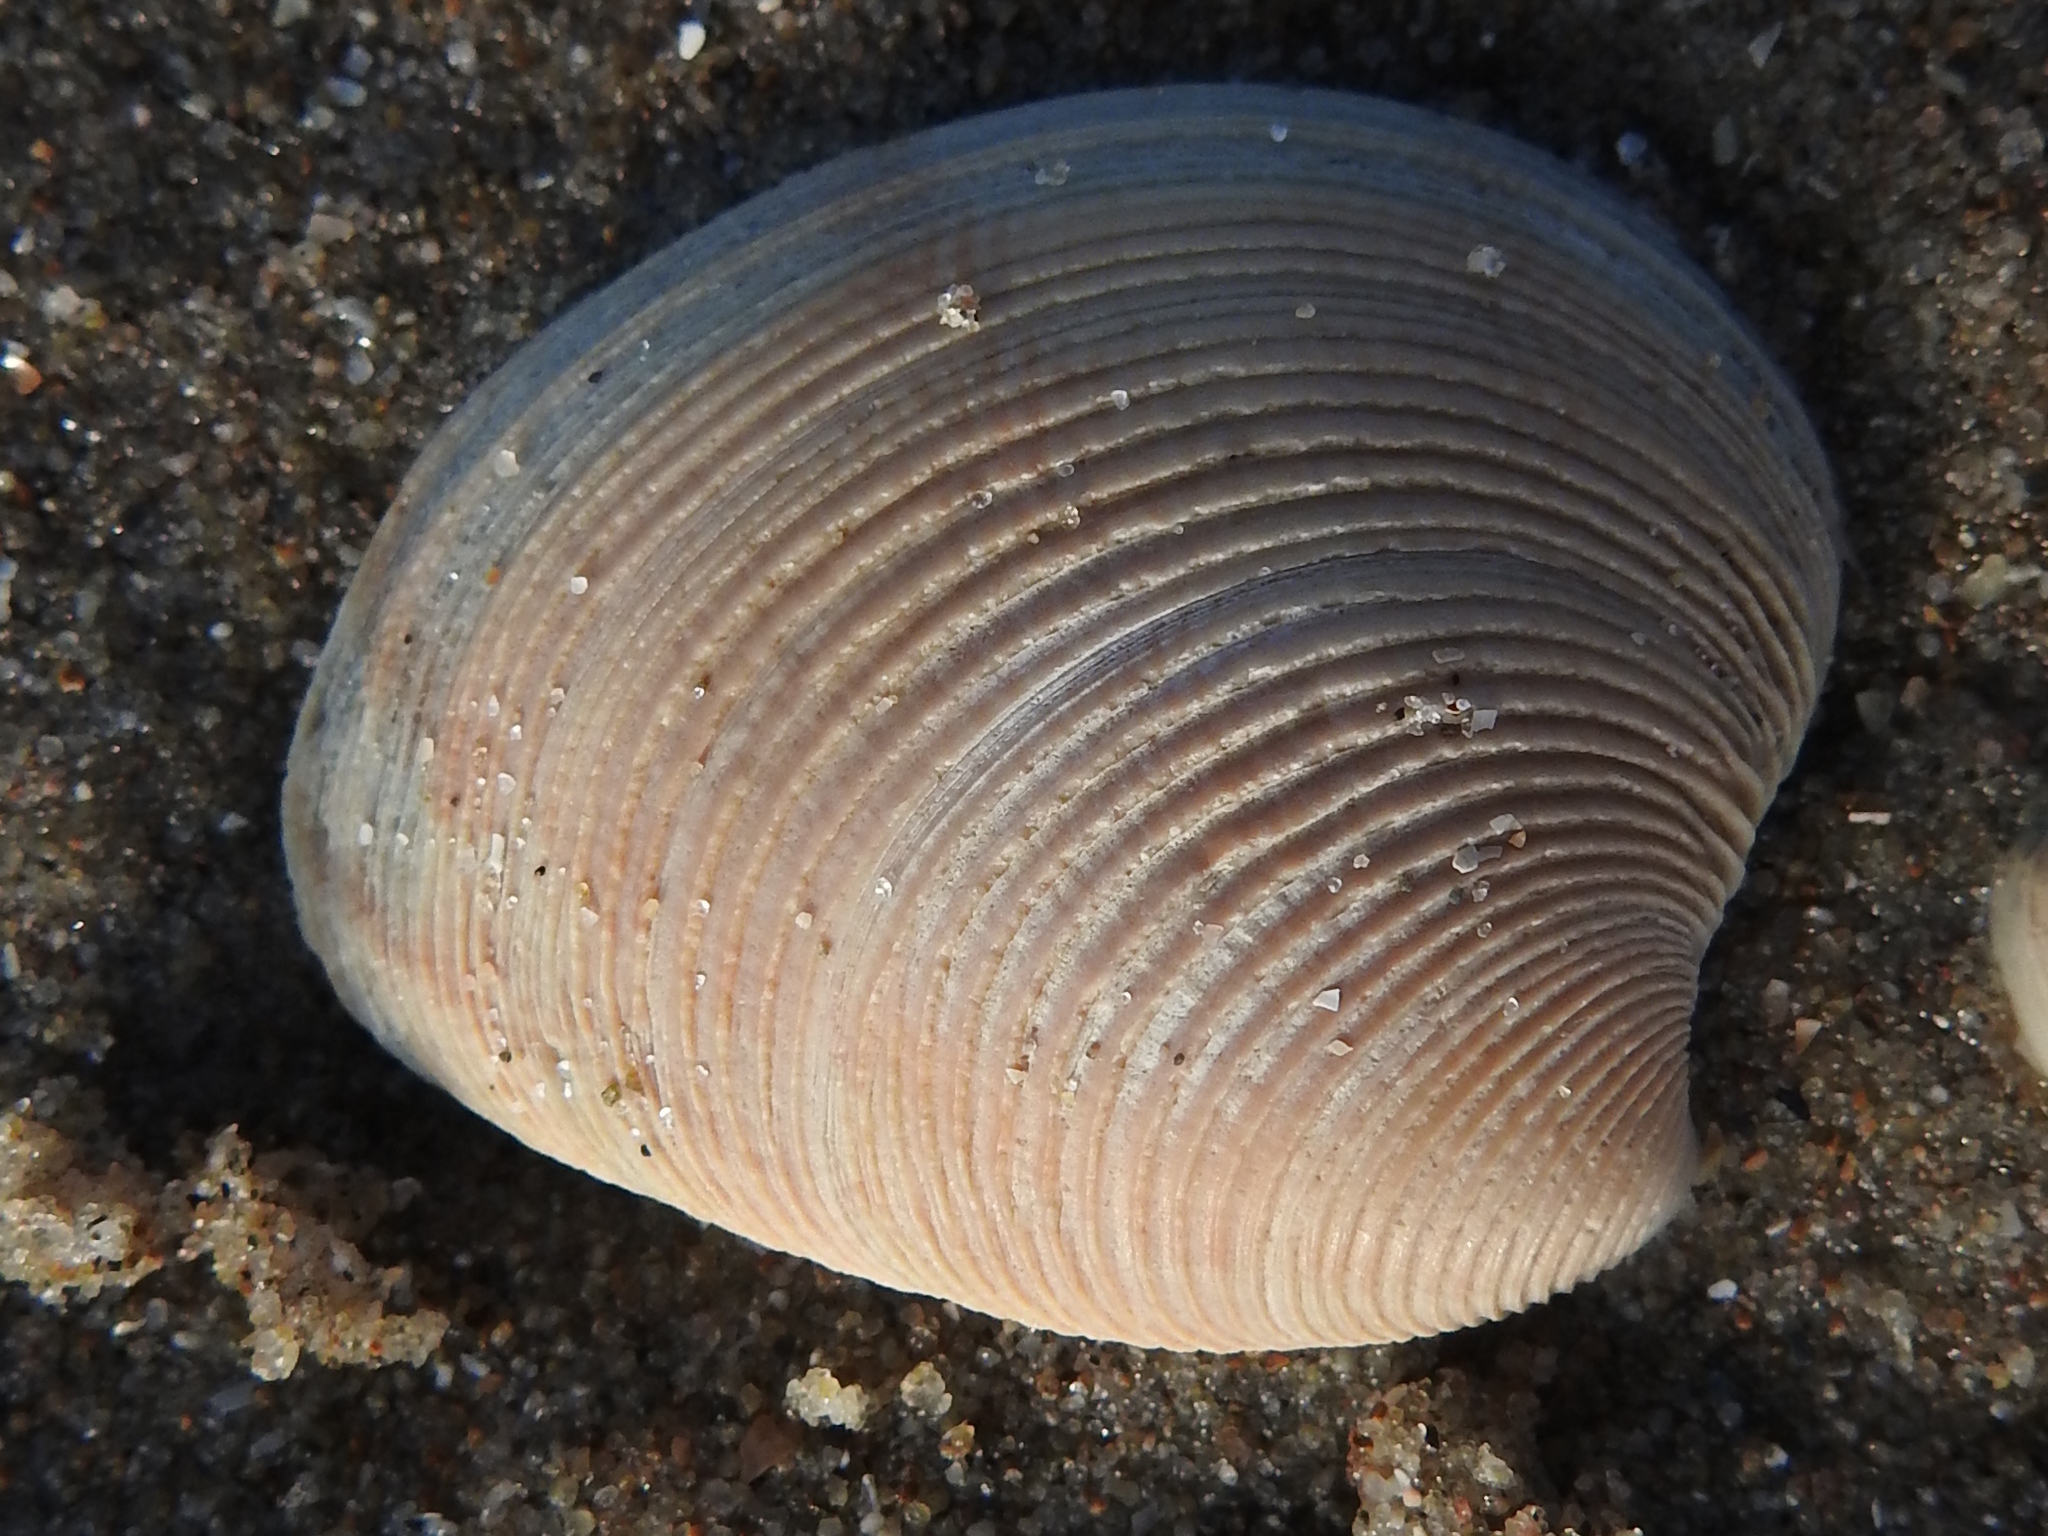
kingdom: Animalia
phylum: Mollusca
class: Bivalvia
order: Venerida
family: Veneridae
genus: Chamelea
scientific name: Chamelea striatula
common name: Striped venus
